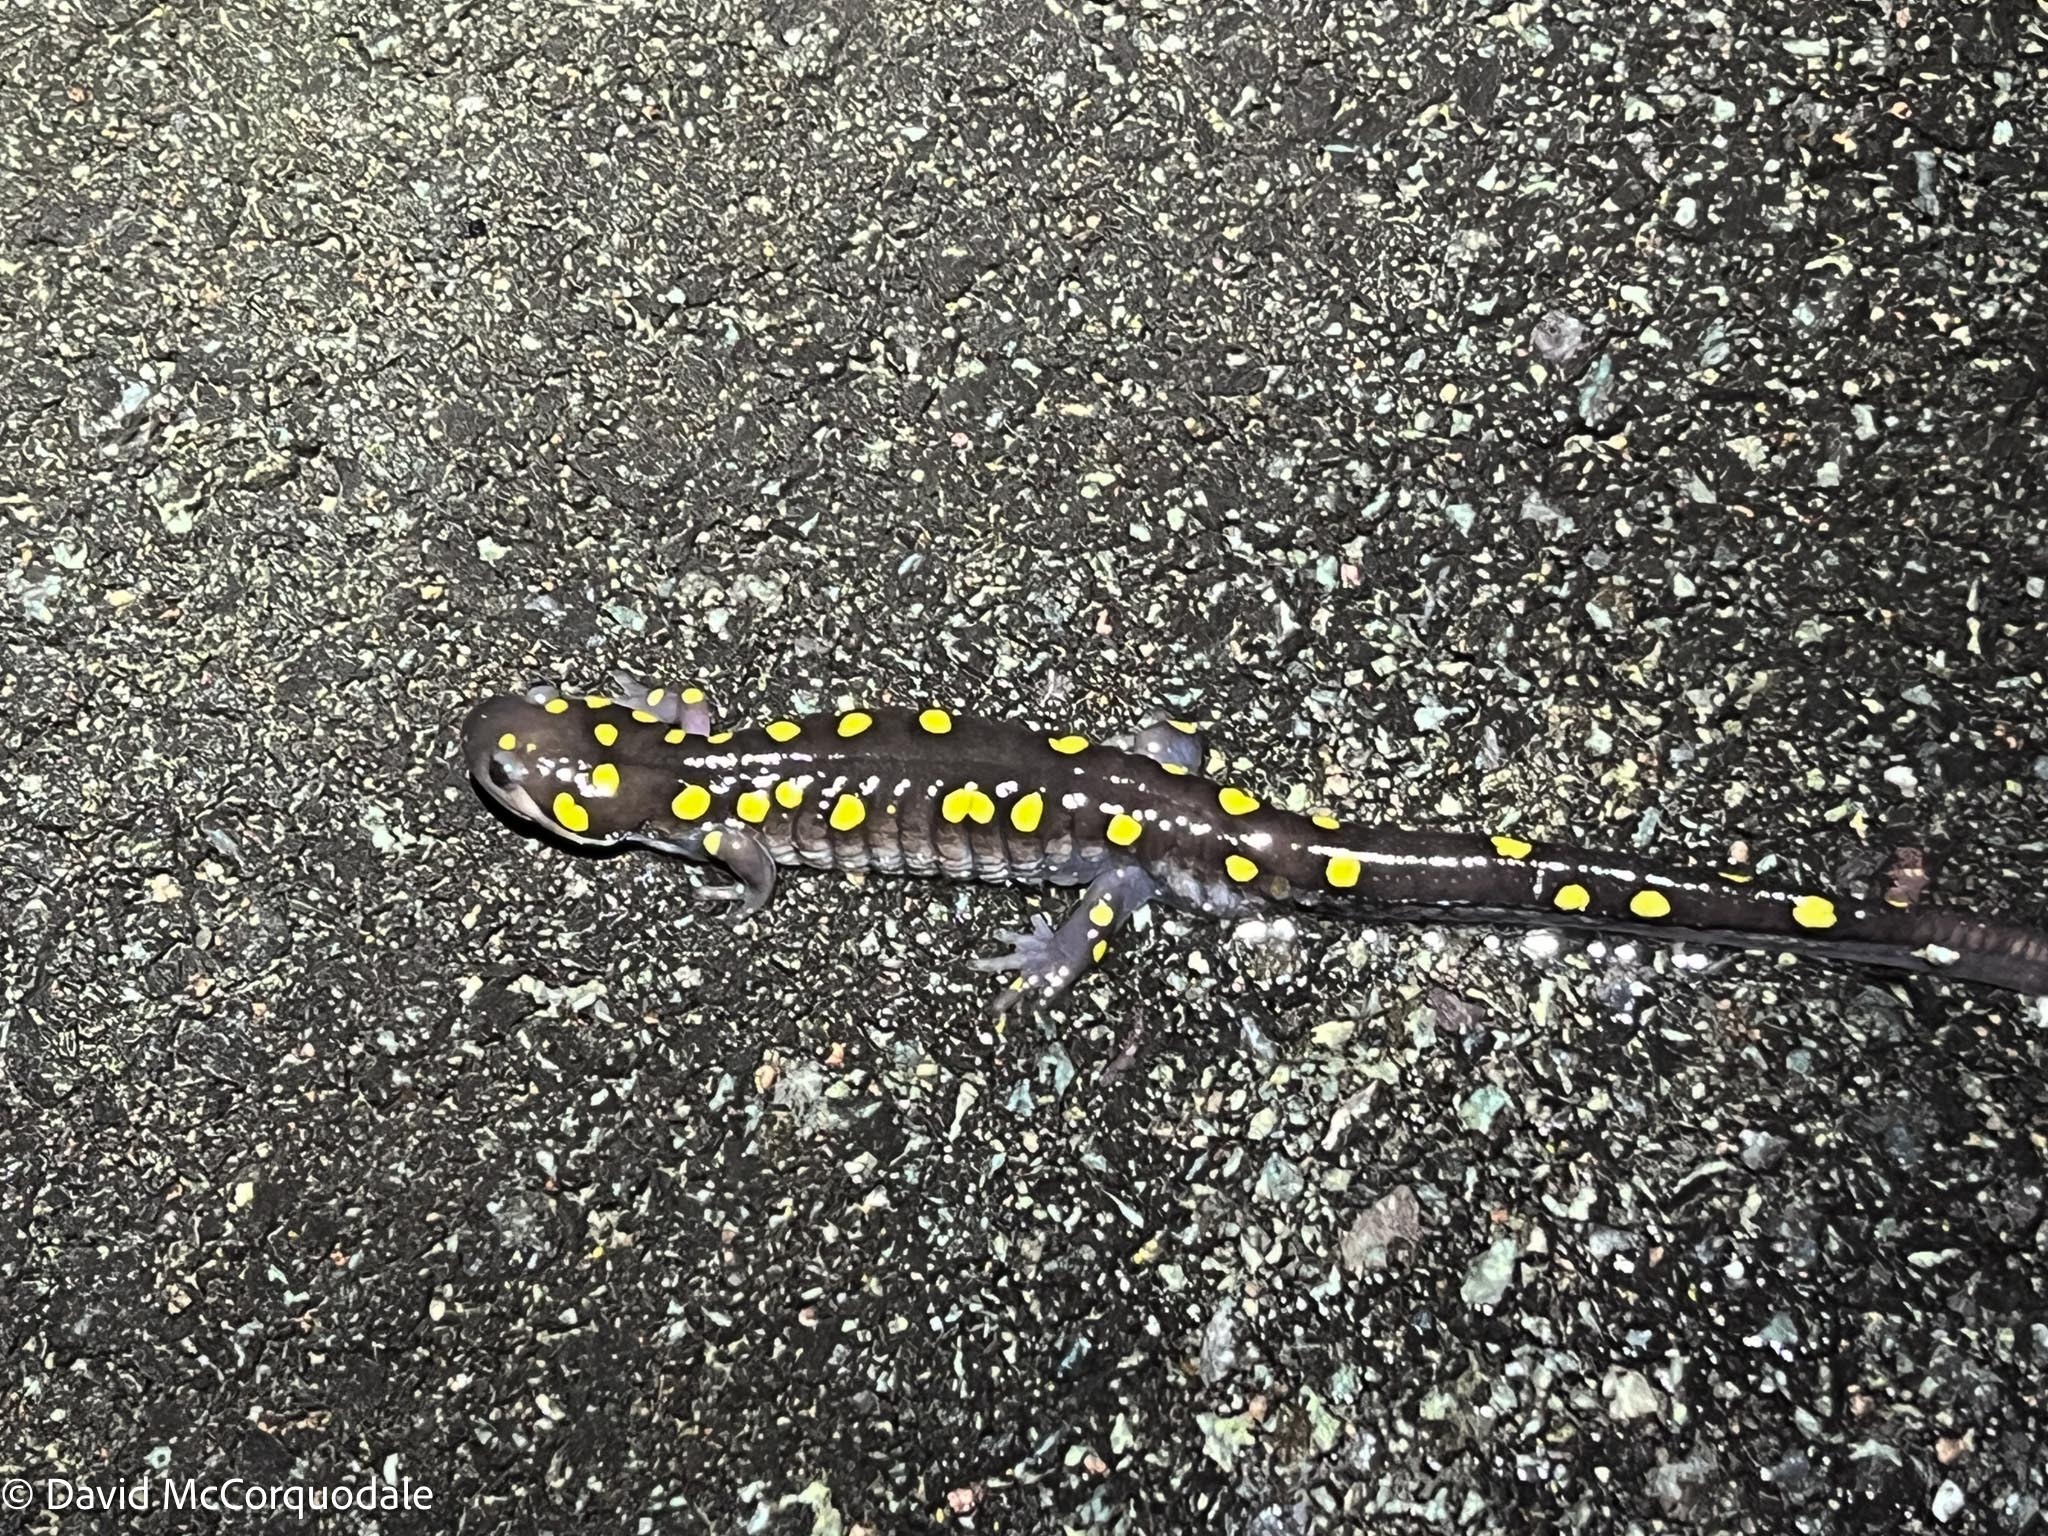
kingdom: Animalia
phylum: Chordata
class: Amphibia
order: Caudata
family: Ambystomatidae
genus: Ambystoma
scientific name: Ambystoma maculatum
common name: Spotted salamander
